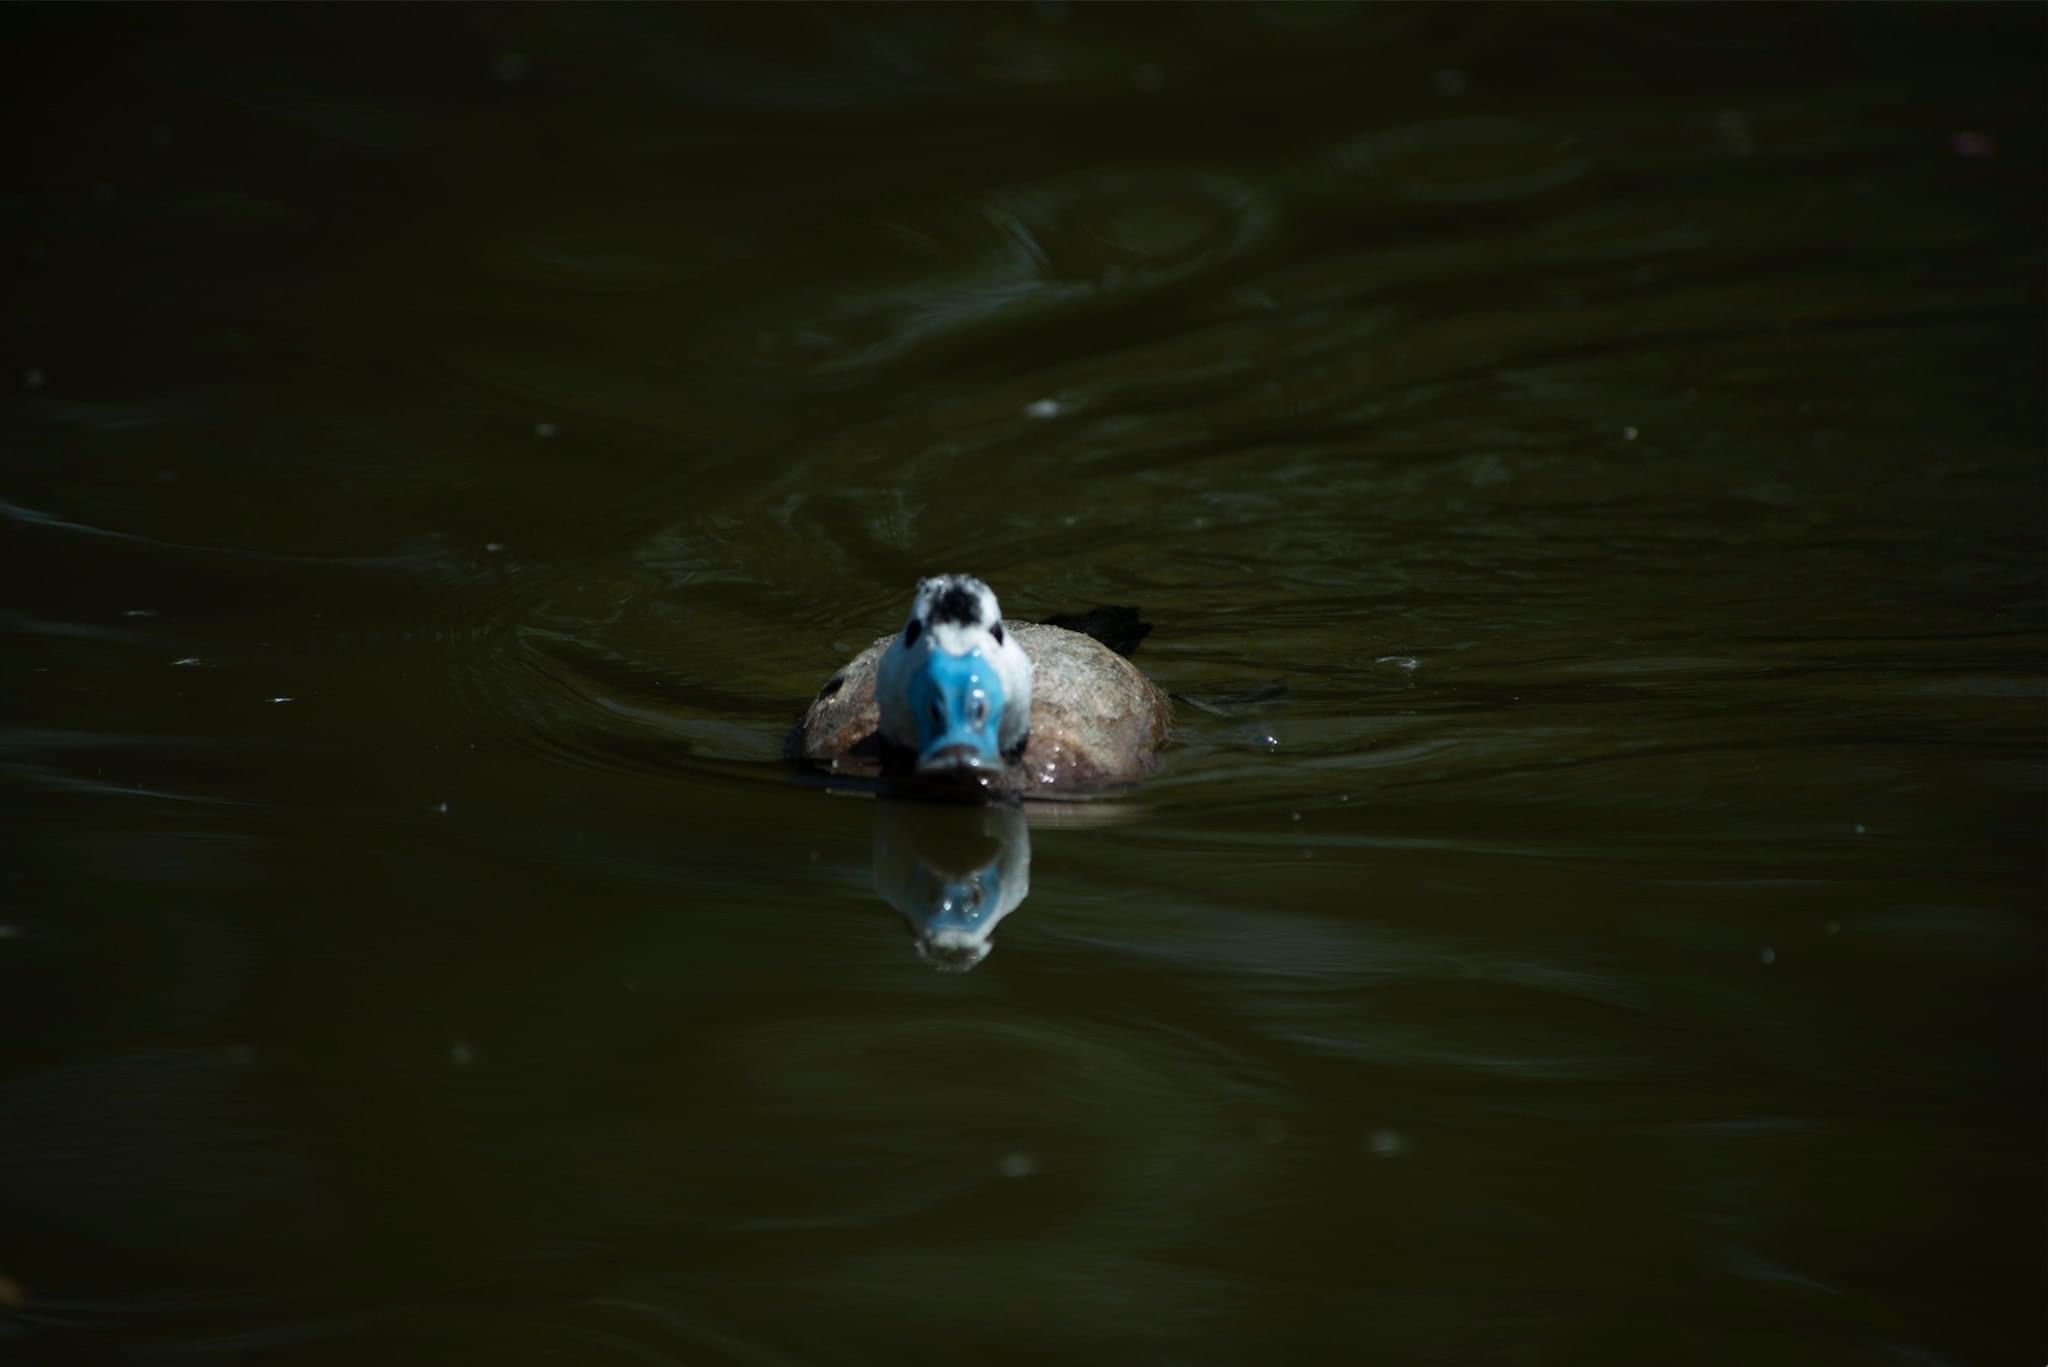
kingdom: Animalia
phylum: Chordata
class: Aves
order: Anseriformes
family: Anatidae
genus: Oxyura
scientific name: Oxyura leucocephala
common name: White-headed duck
